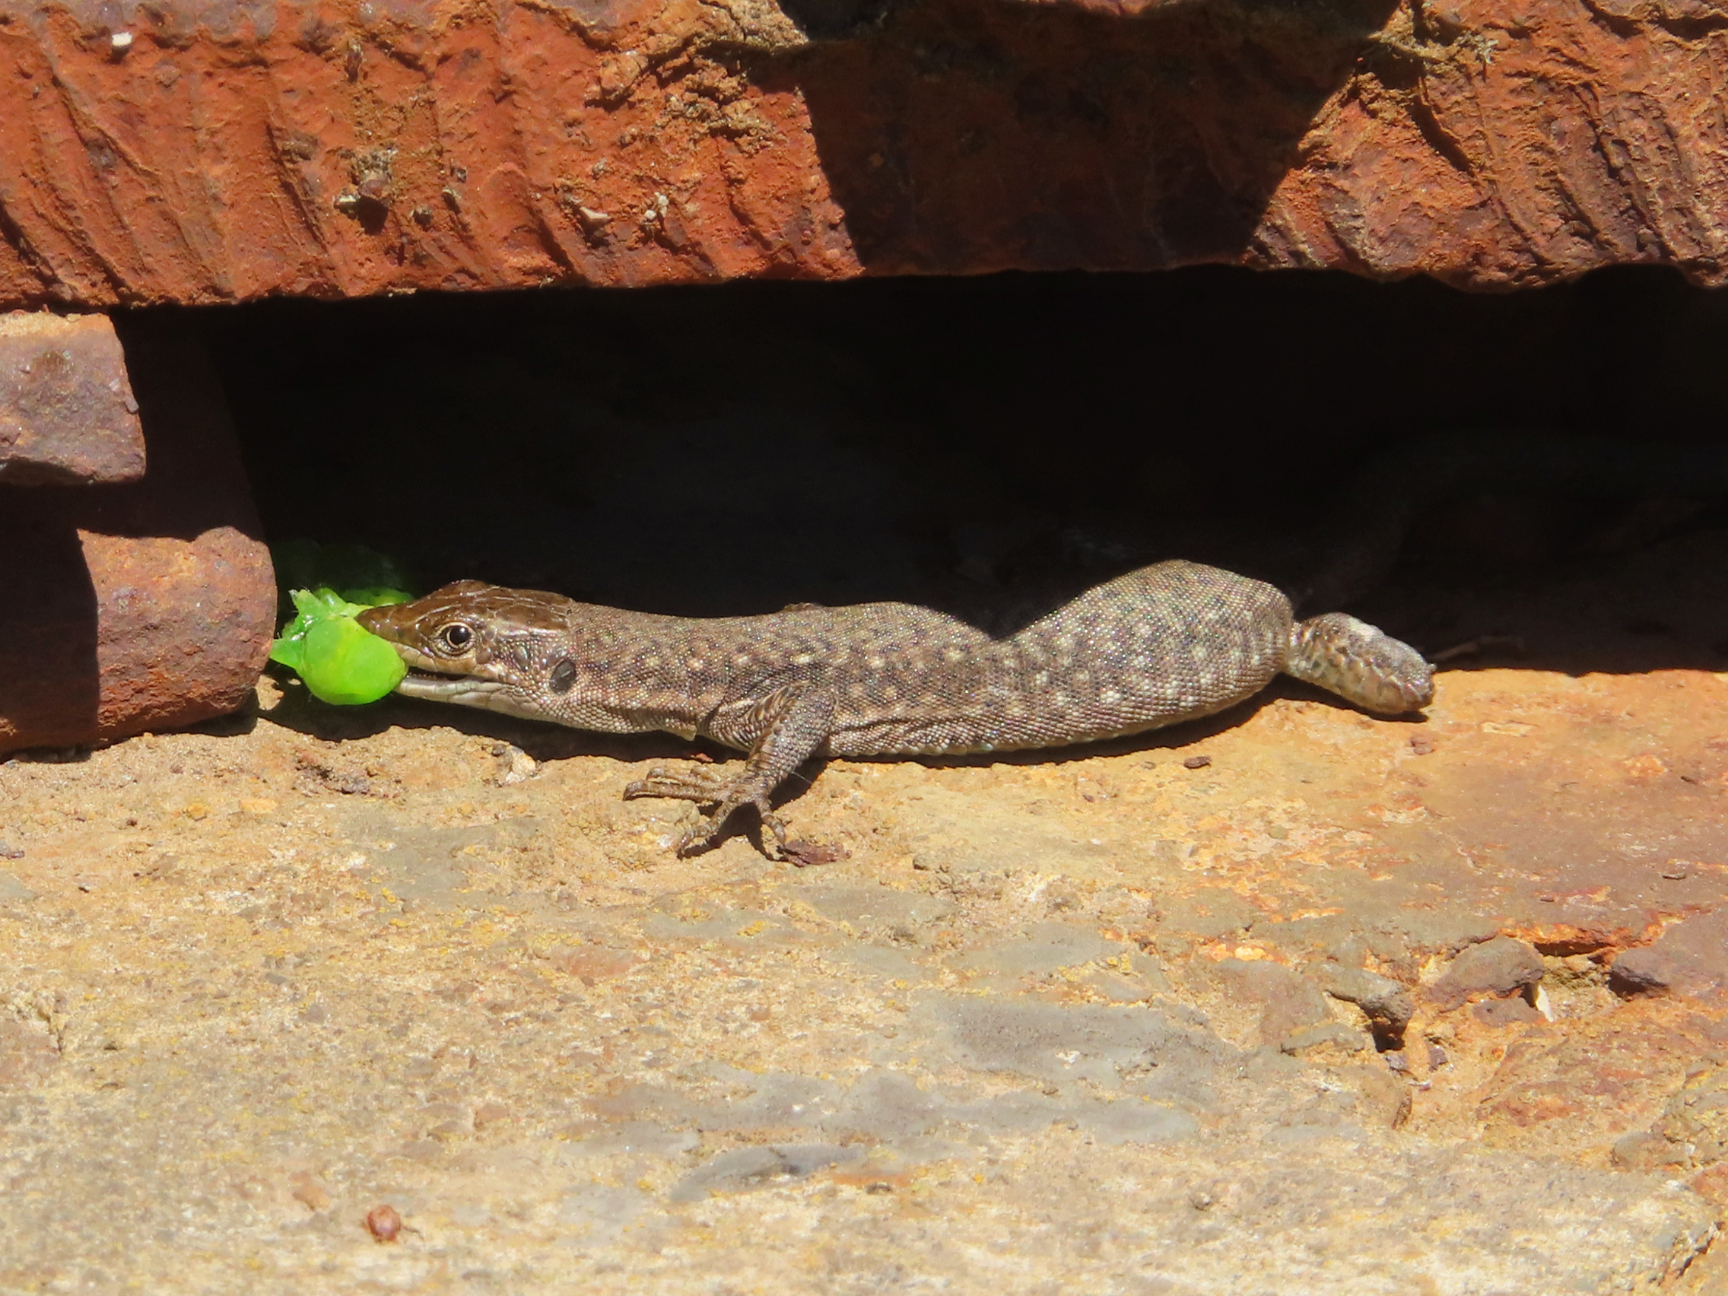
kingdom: Animalia
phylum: Chordata
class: Squamata
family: Lacertidae
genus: Darevskia
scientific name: Darevskia
